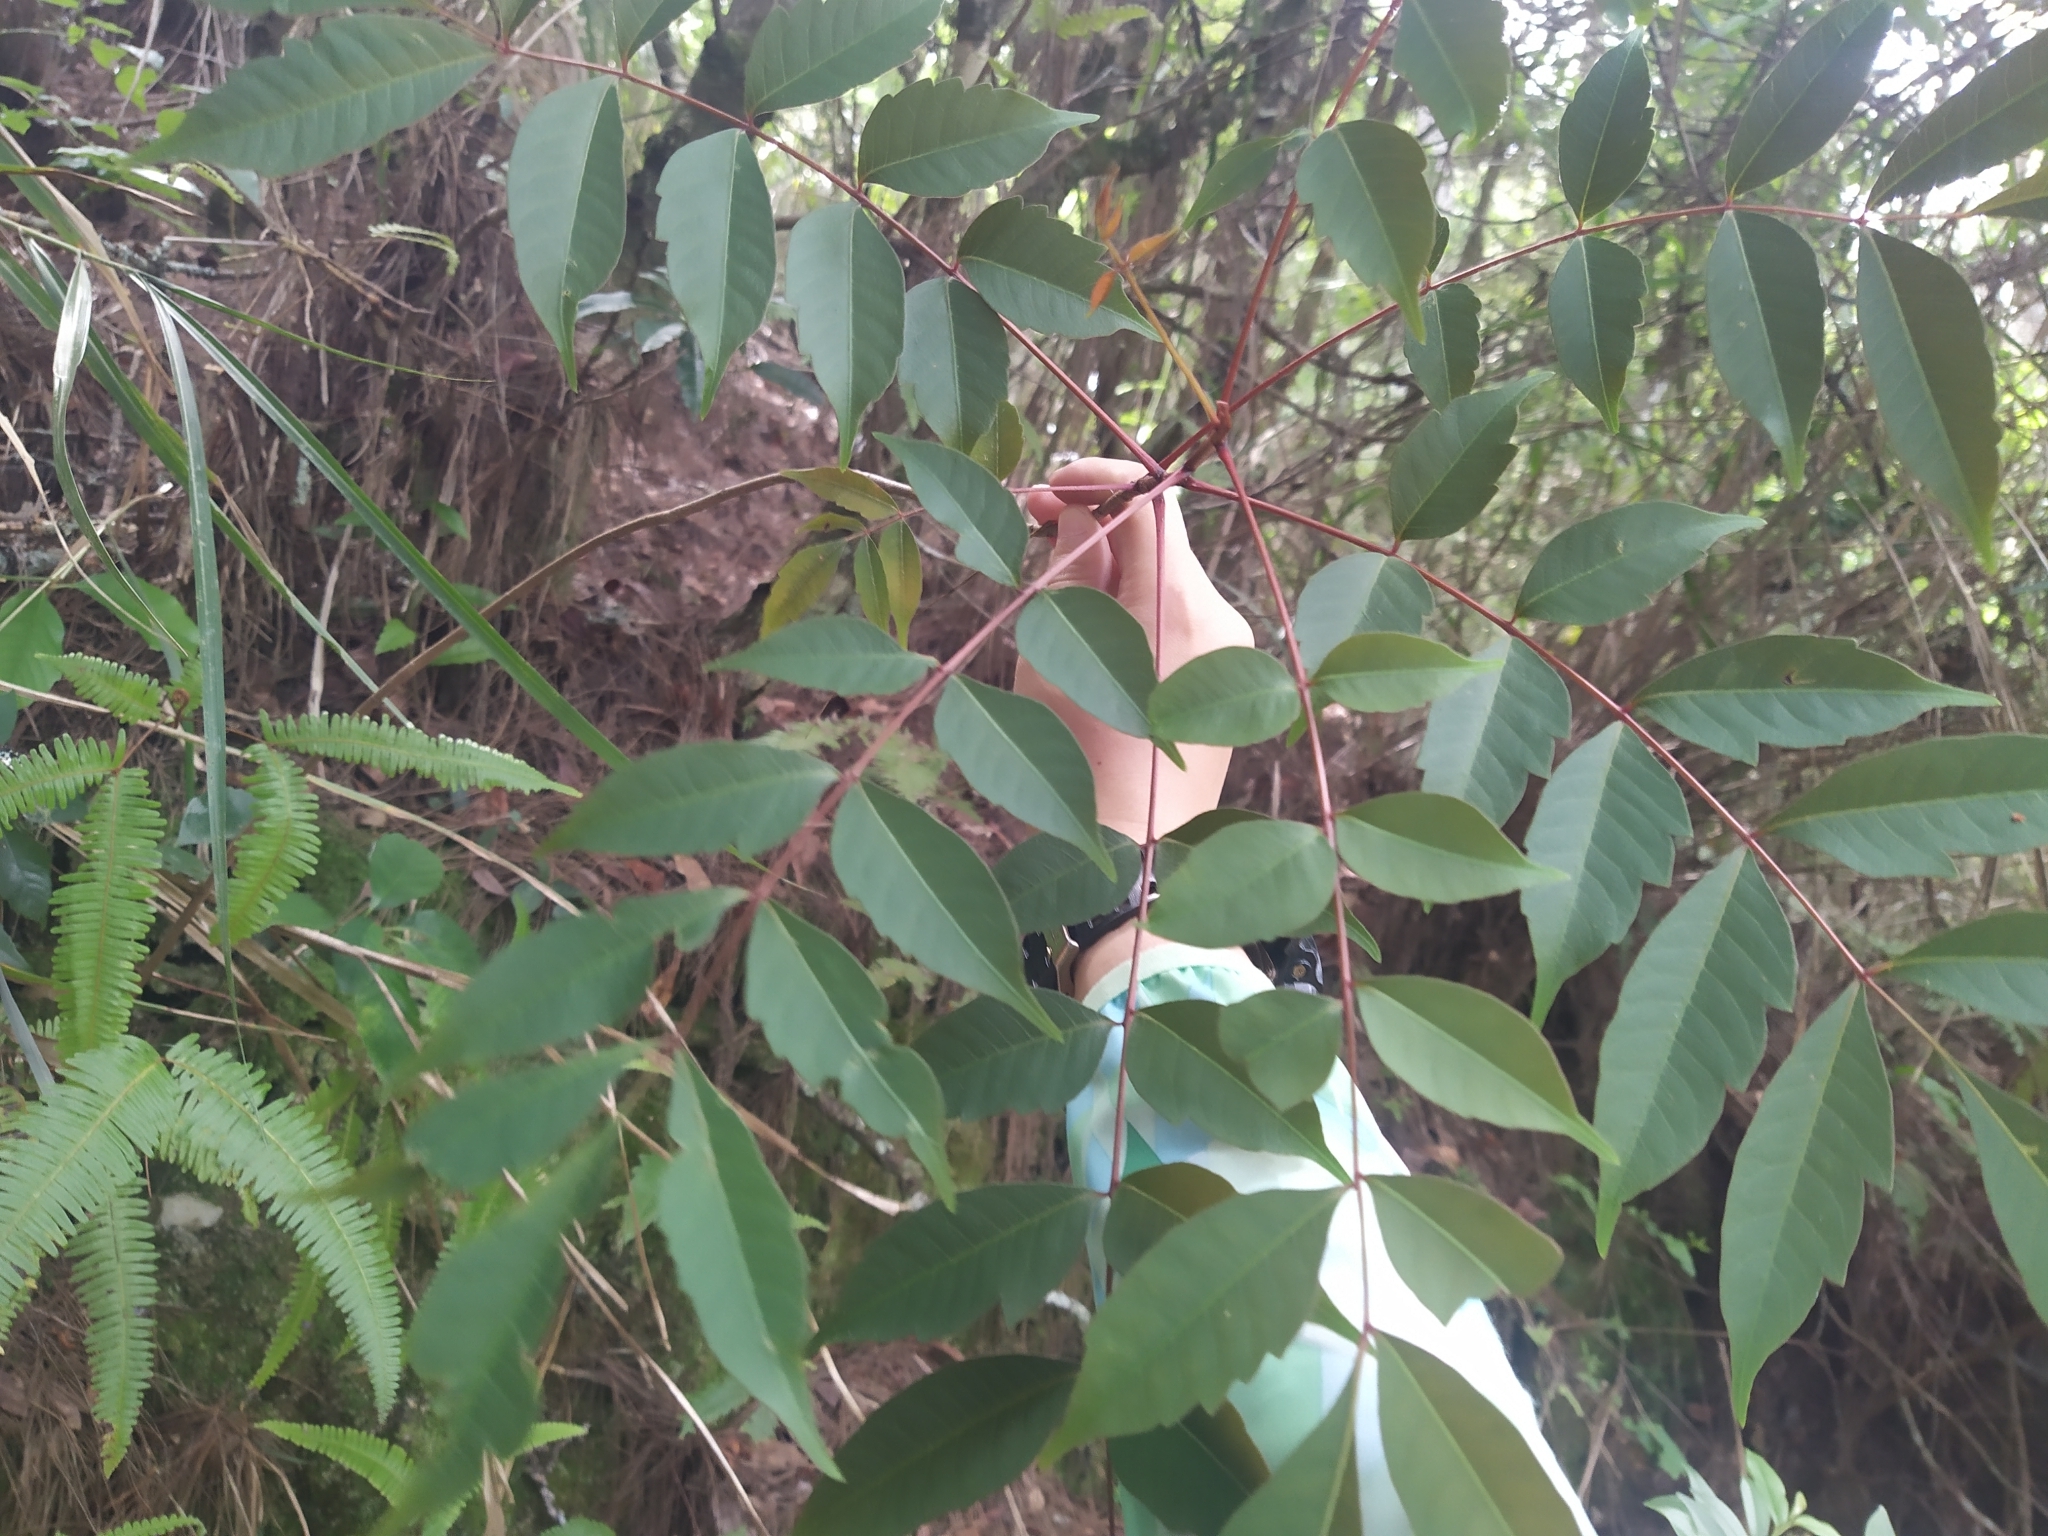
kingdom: Plantae
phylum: Tracheophyta
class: Magnoliopsida
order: Sapindales
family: Anacardiaceae
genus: Toxicodendron
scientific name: Toxicodendron succedaneum
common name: Wax tree
